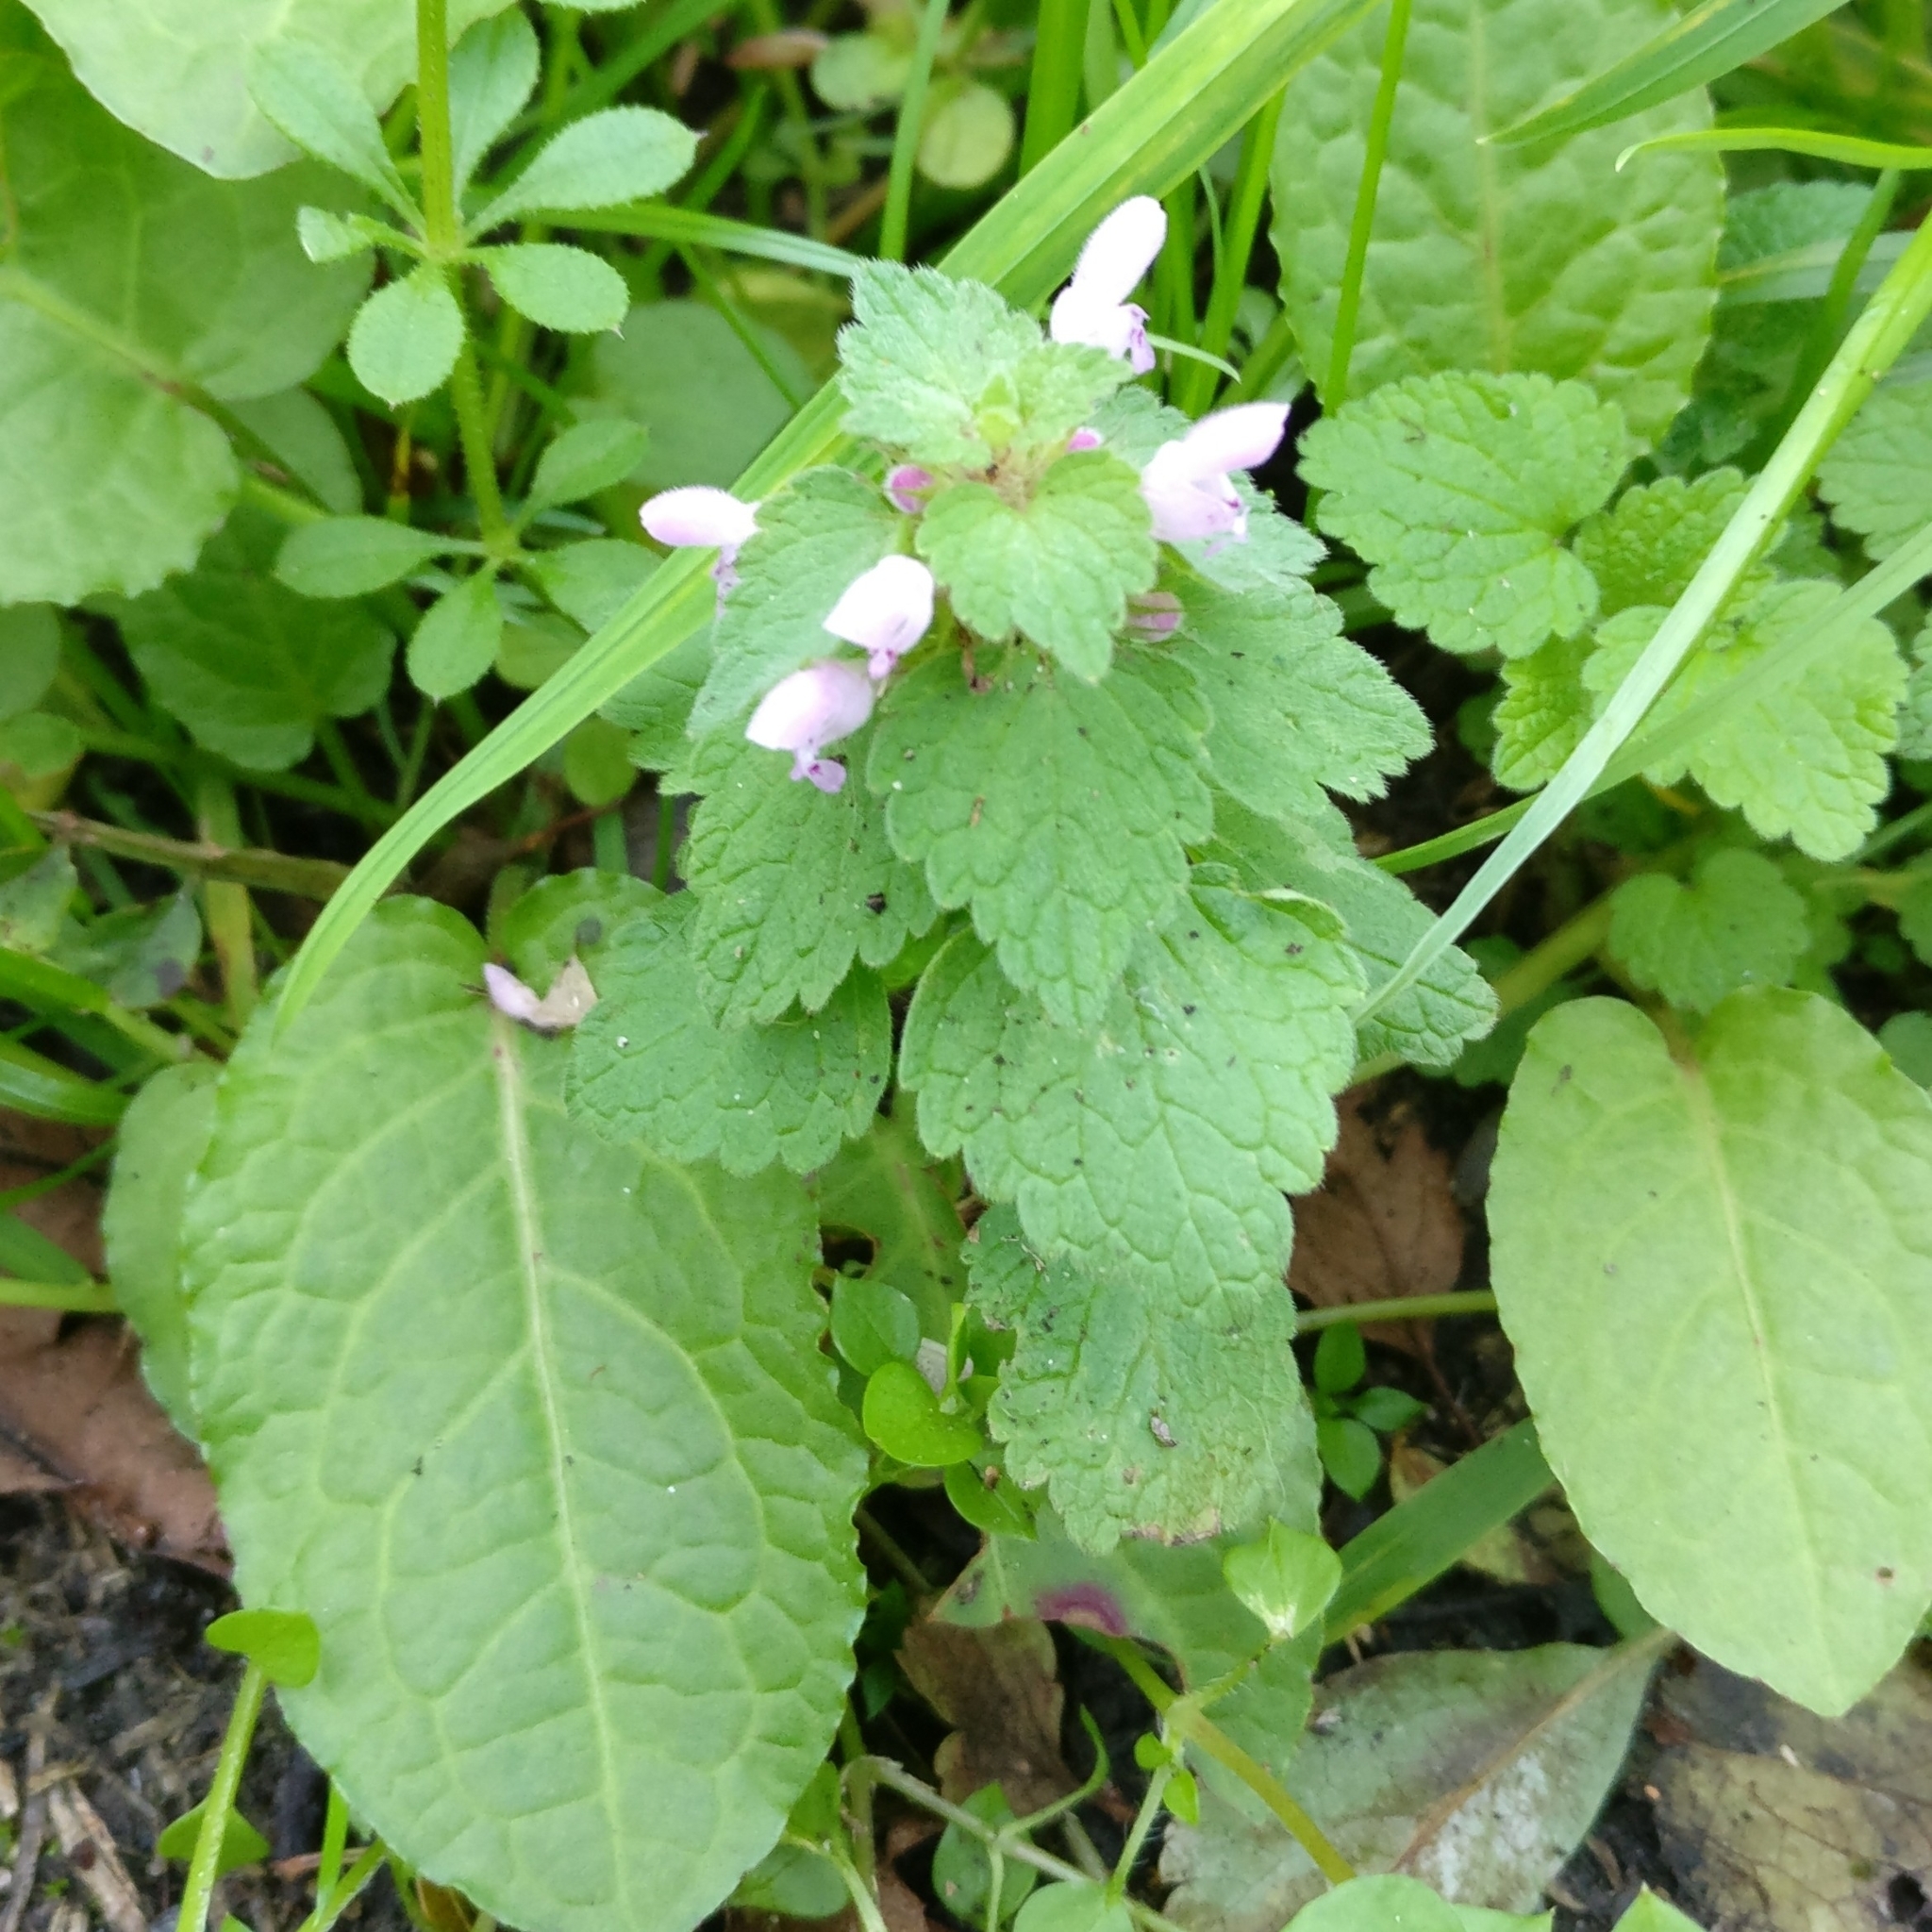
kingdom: Plantae
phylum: Tracheophyta
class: Magnoliopsida
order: Lamiales
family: Lamiaceae
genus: Lamium
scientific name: Lamium purpureum
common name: Red dead-nettle
